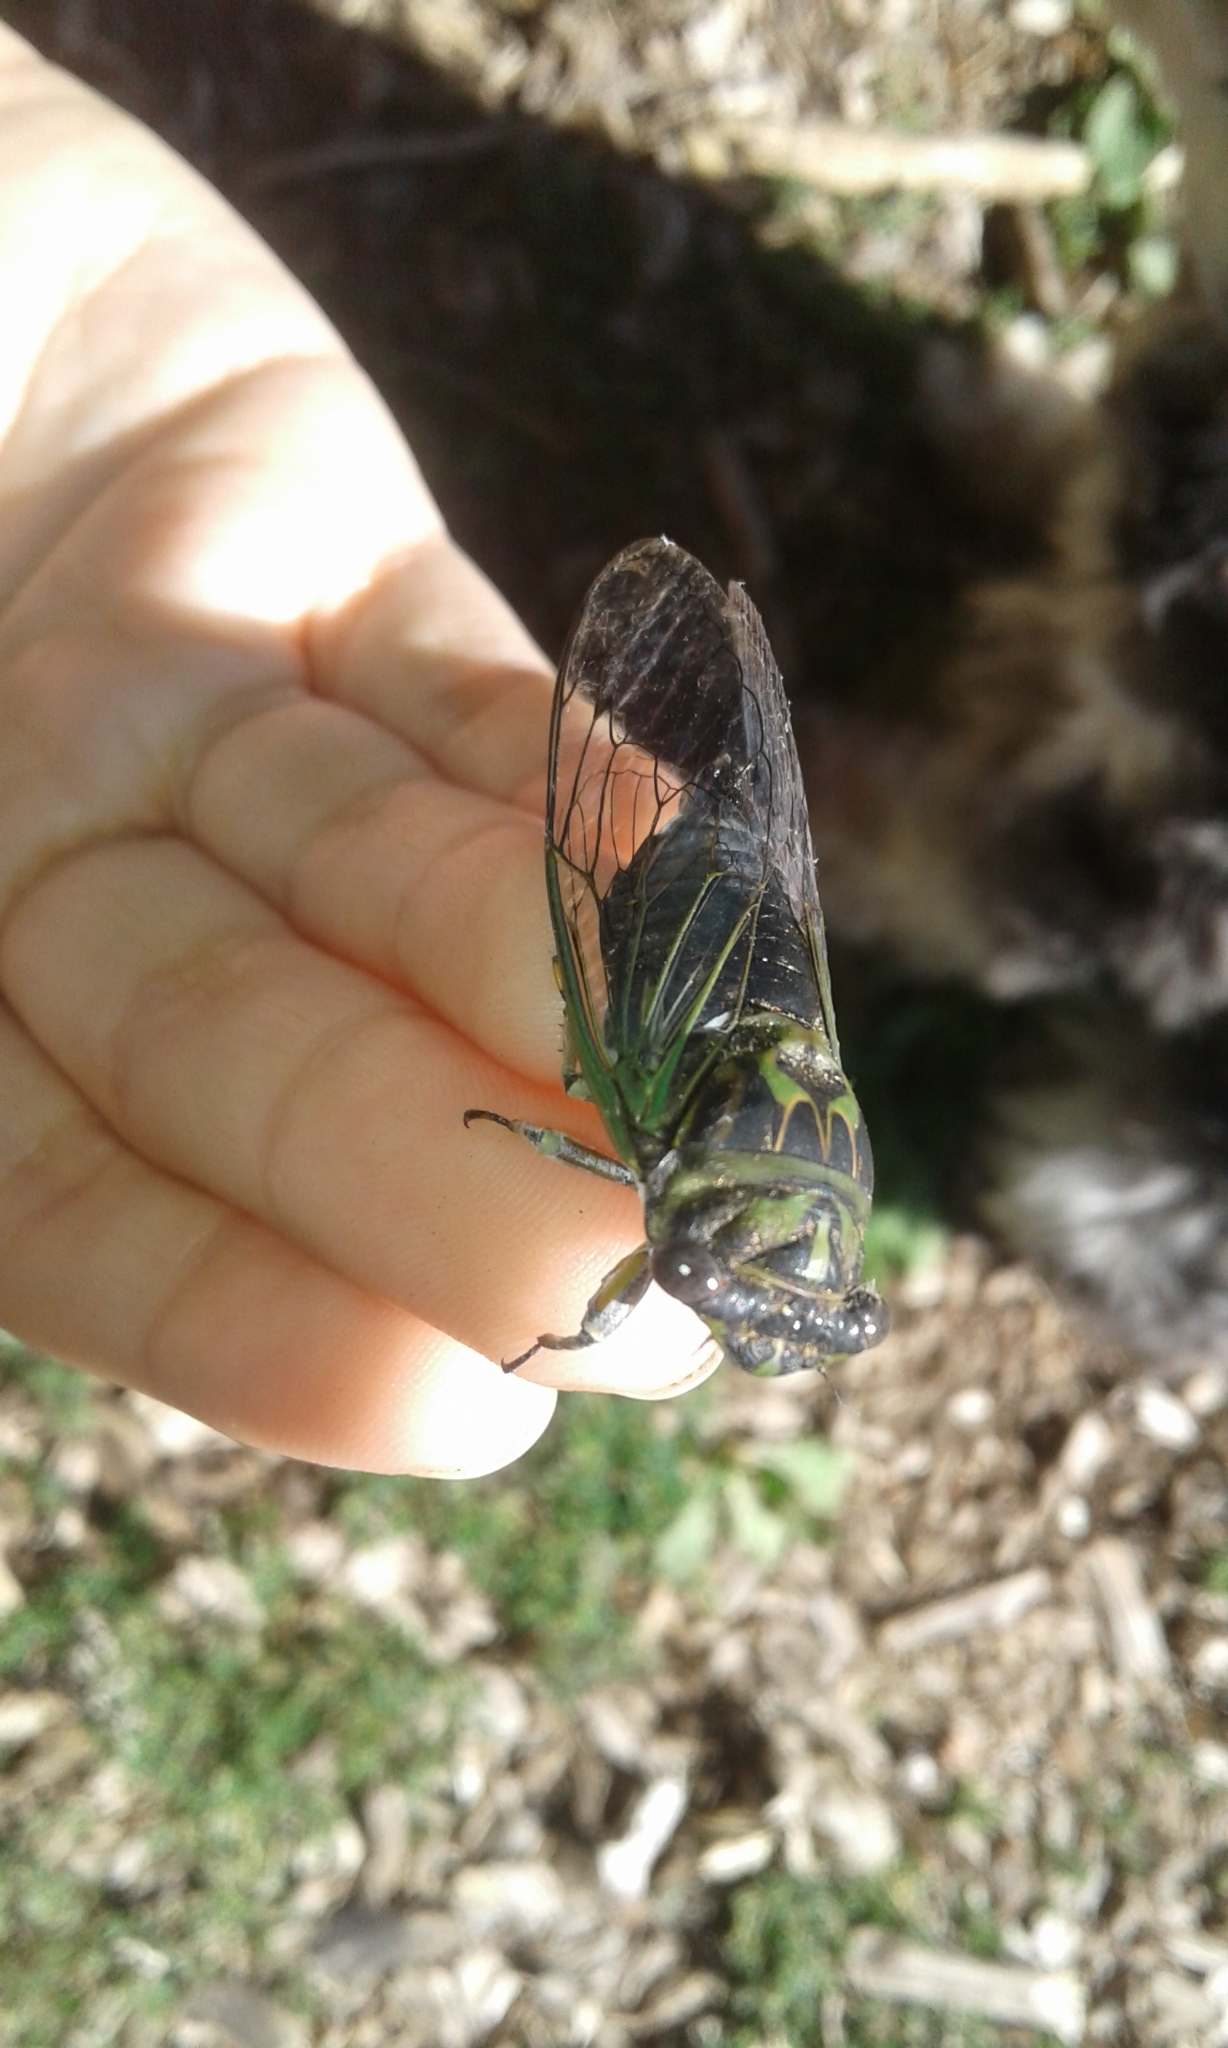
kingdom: Animalia
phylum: Arthropoda
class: Insecta
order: Hemiptera
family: Cicadidae
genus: Neotibicen
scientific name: Neotibicen canicularis
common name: God-day cicada
